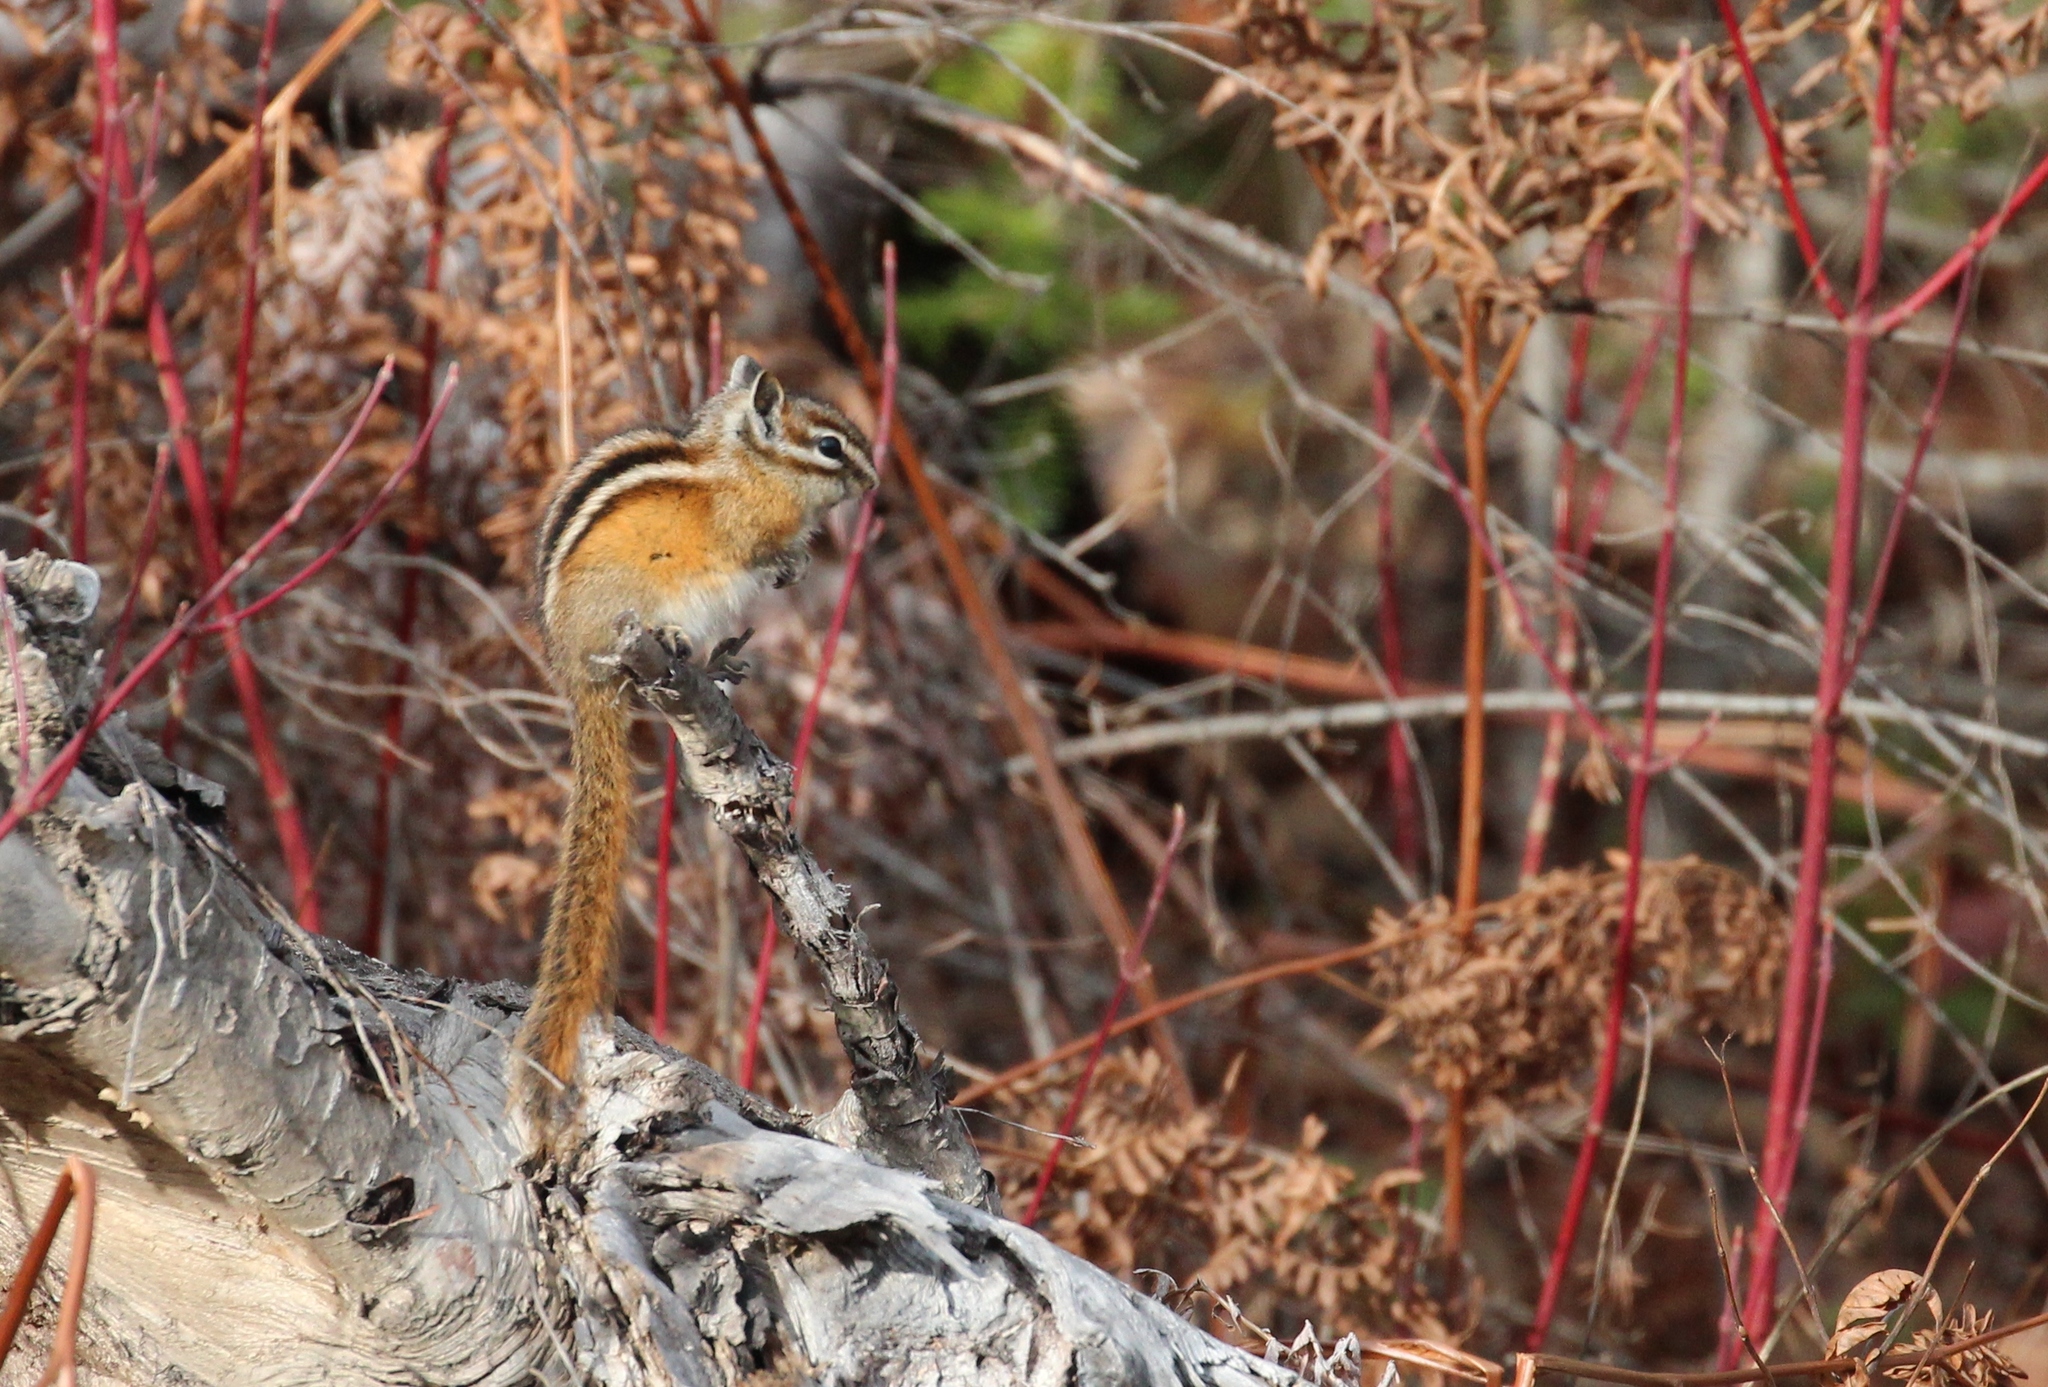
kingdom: Animalia
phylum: Chordata
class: Mammalia
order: Rodentia
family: Sciuridae
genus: Tamias
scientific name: Tamias minimus
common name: Least chipmunk
